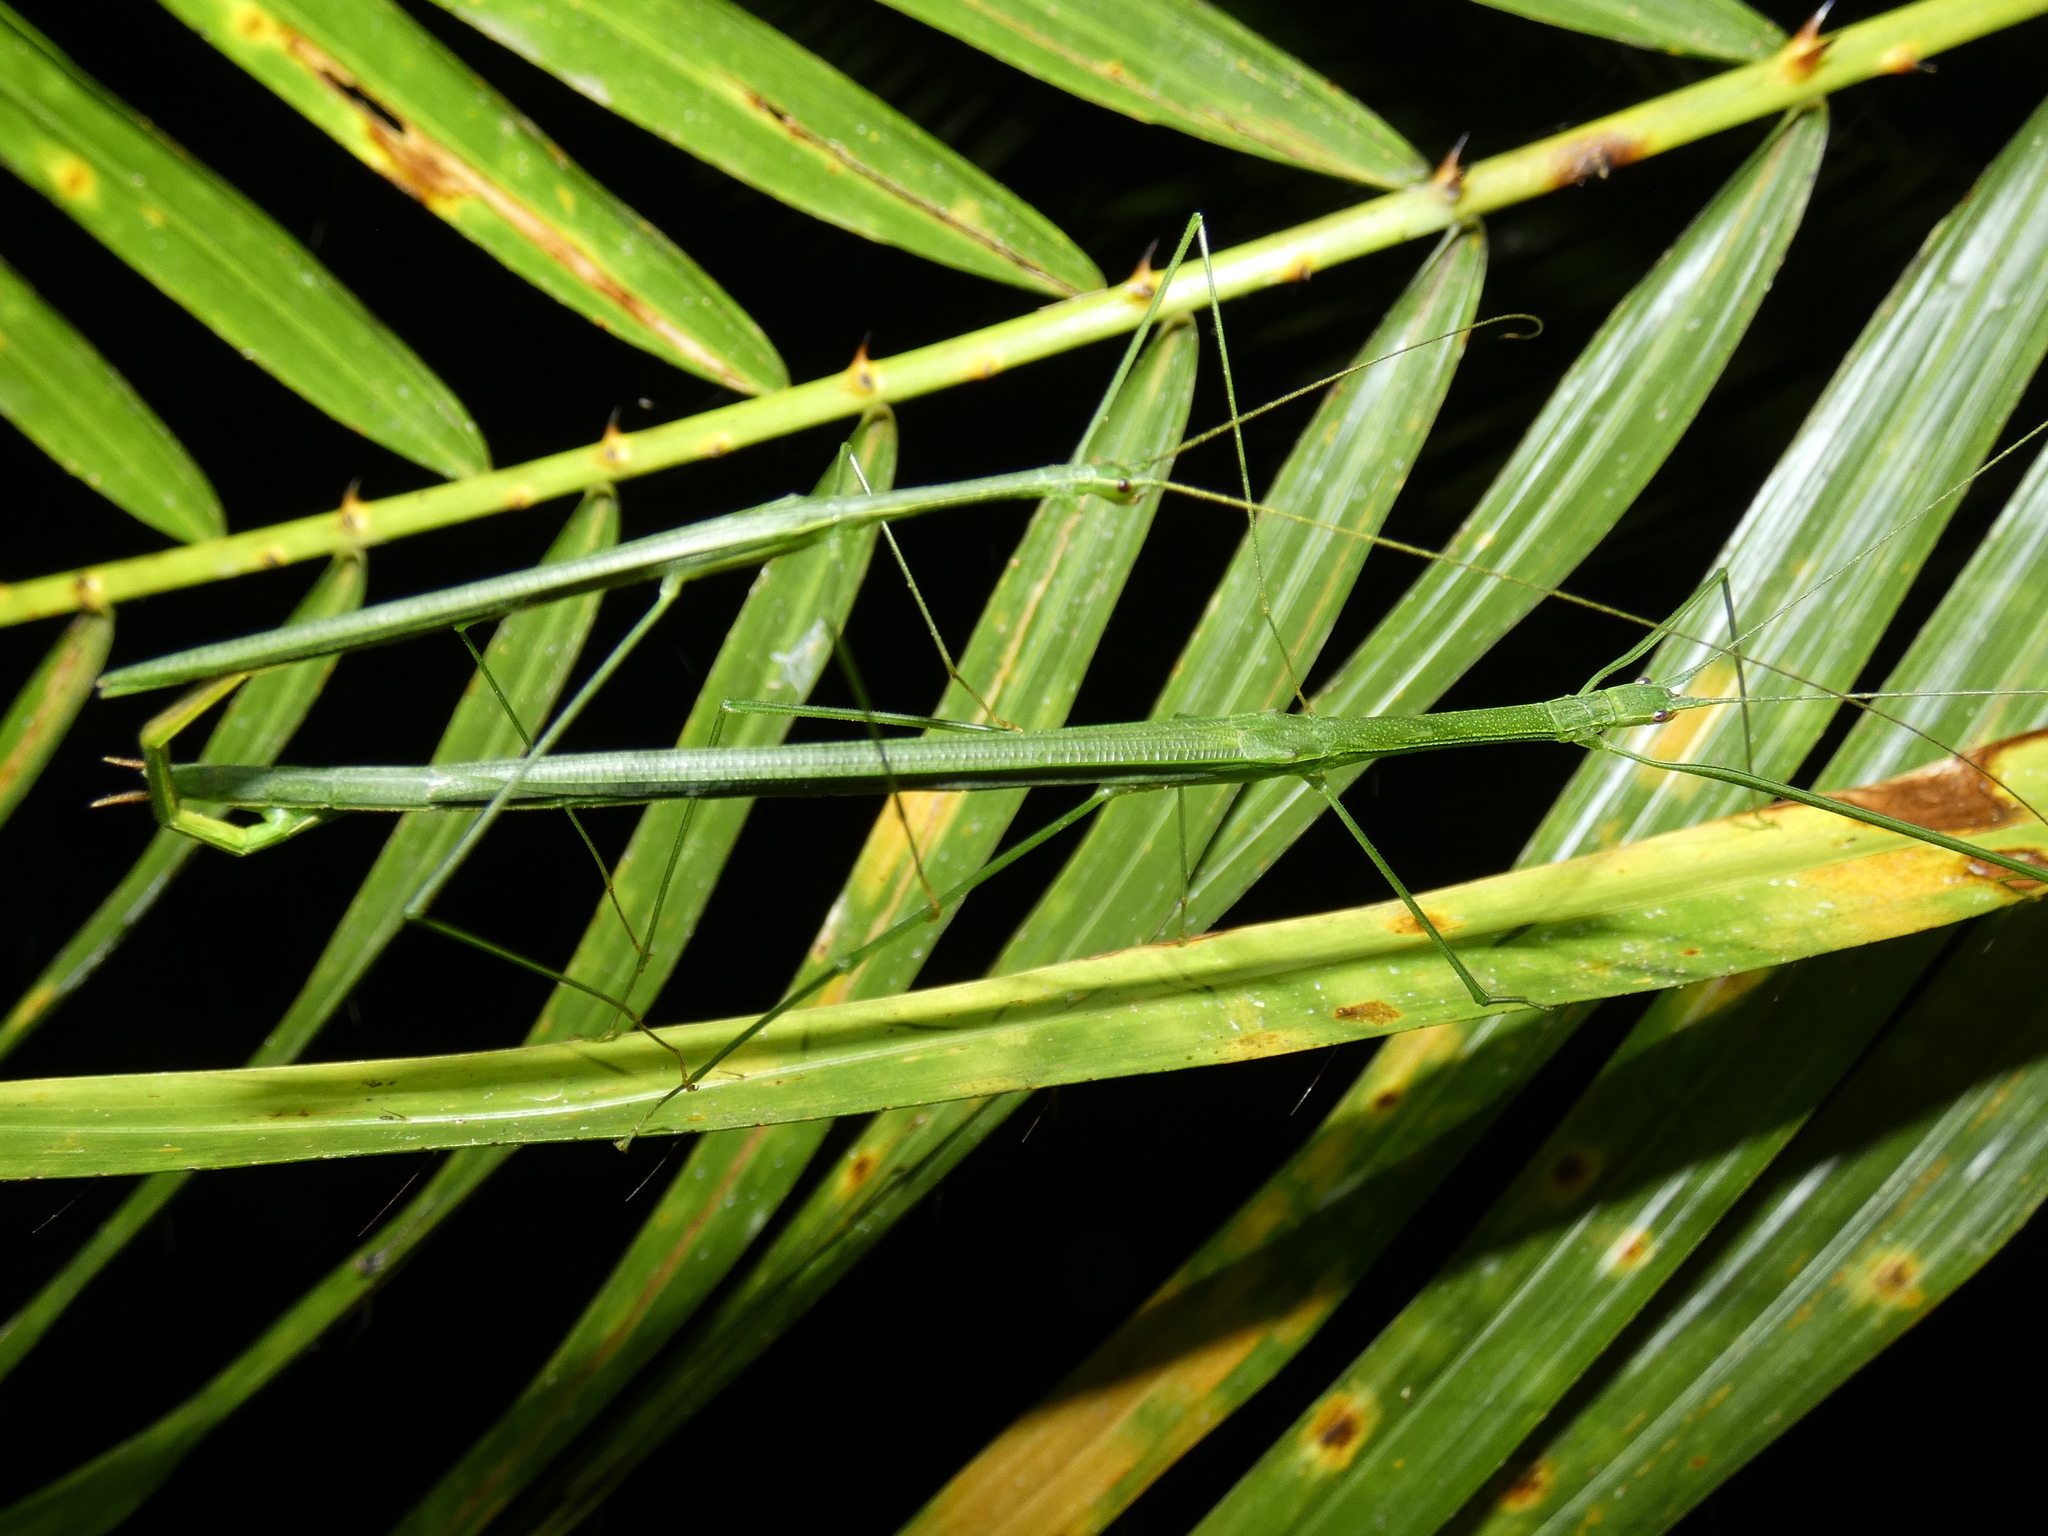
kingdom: Animalia
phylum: Arthropoda
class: Insecta
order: Phasmida
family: Lonchodidae
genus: Sipyloidea
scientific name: Sipyloidea rentzi
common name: Rentz's sipyloidea stick-insect
